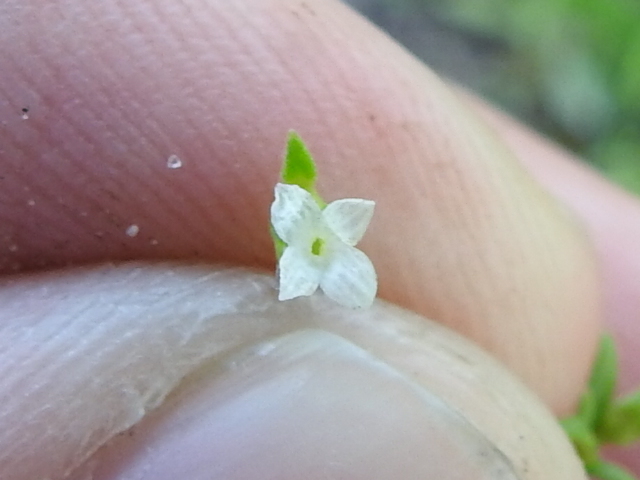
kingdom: Plantae
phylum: Tracheophyta
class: Magnoliopsida
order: Gentianales
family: Rubiaceae
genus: Houstonia
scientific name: Houstonia micrantha
